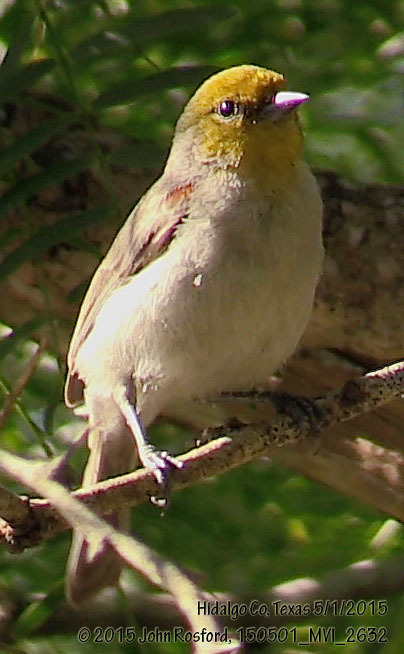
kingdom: Animalia
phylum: Chordata
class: Aves
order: Passeriformes
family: Remizidae
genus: Auriparus
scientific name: Auriparus flaviceps
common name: Verdin
